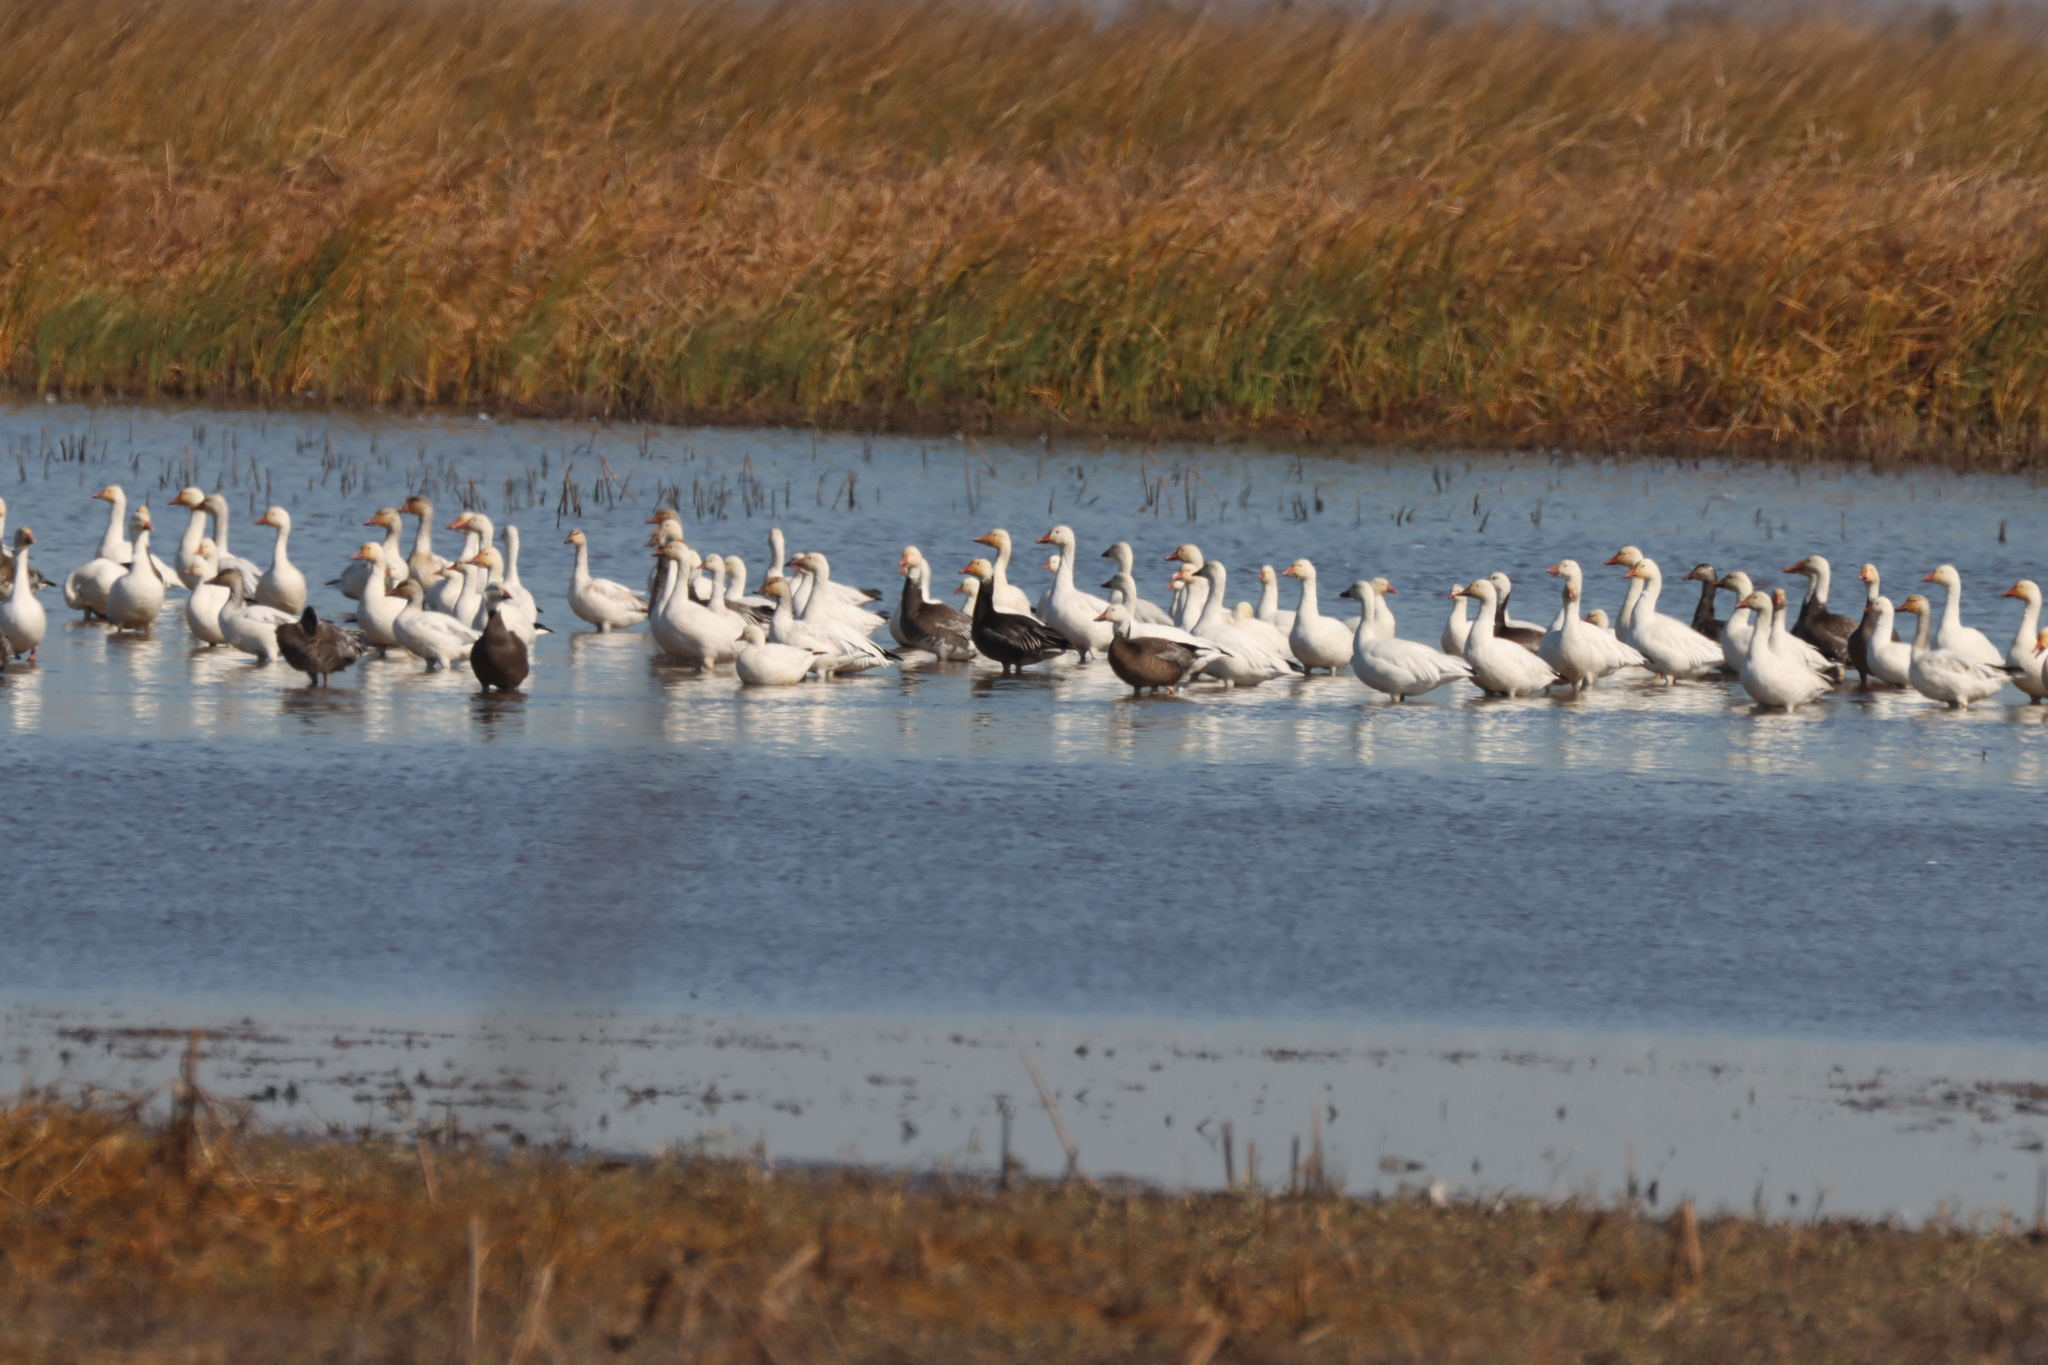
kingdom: Animalia
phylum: Chordata
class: Aves
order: Anseriformes
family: Anatidae
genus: Anser
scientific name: Anser caerulescens
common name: Snow goose
